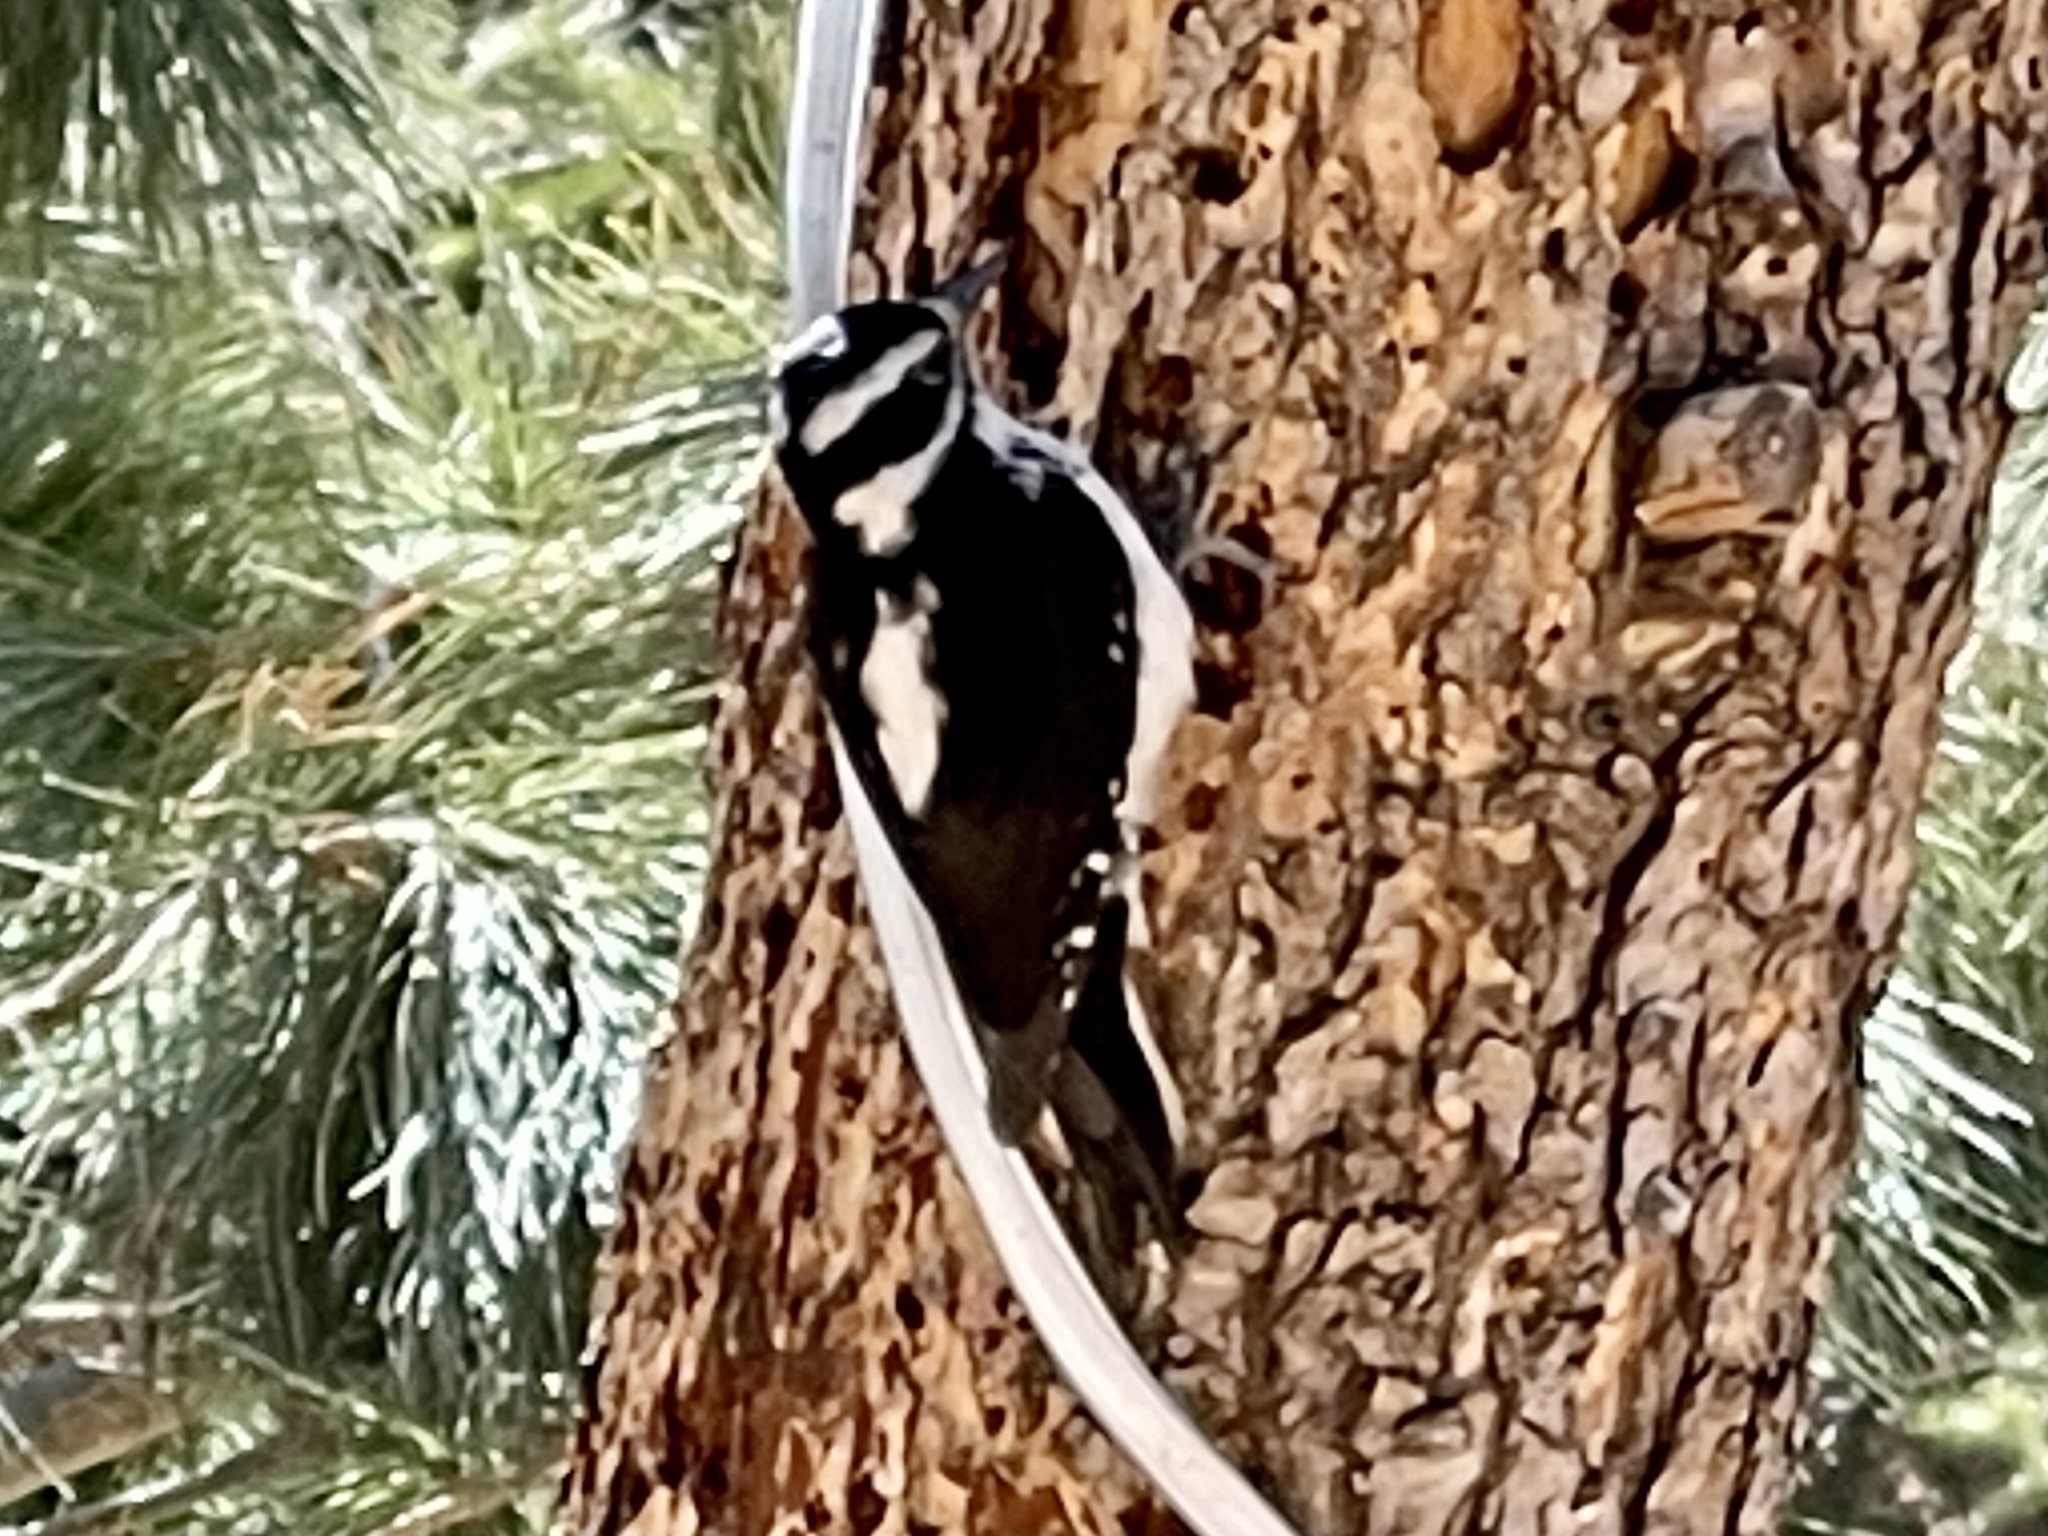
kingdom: Animalia
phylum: Chordata
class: Aves
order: Piciformes
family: Picidae
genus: Leuconotopicus
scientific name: Leuconotopicus villosus
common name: Hairy woodpecker
